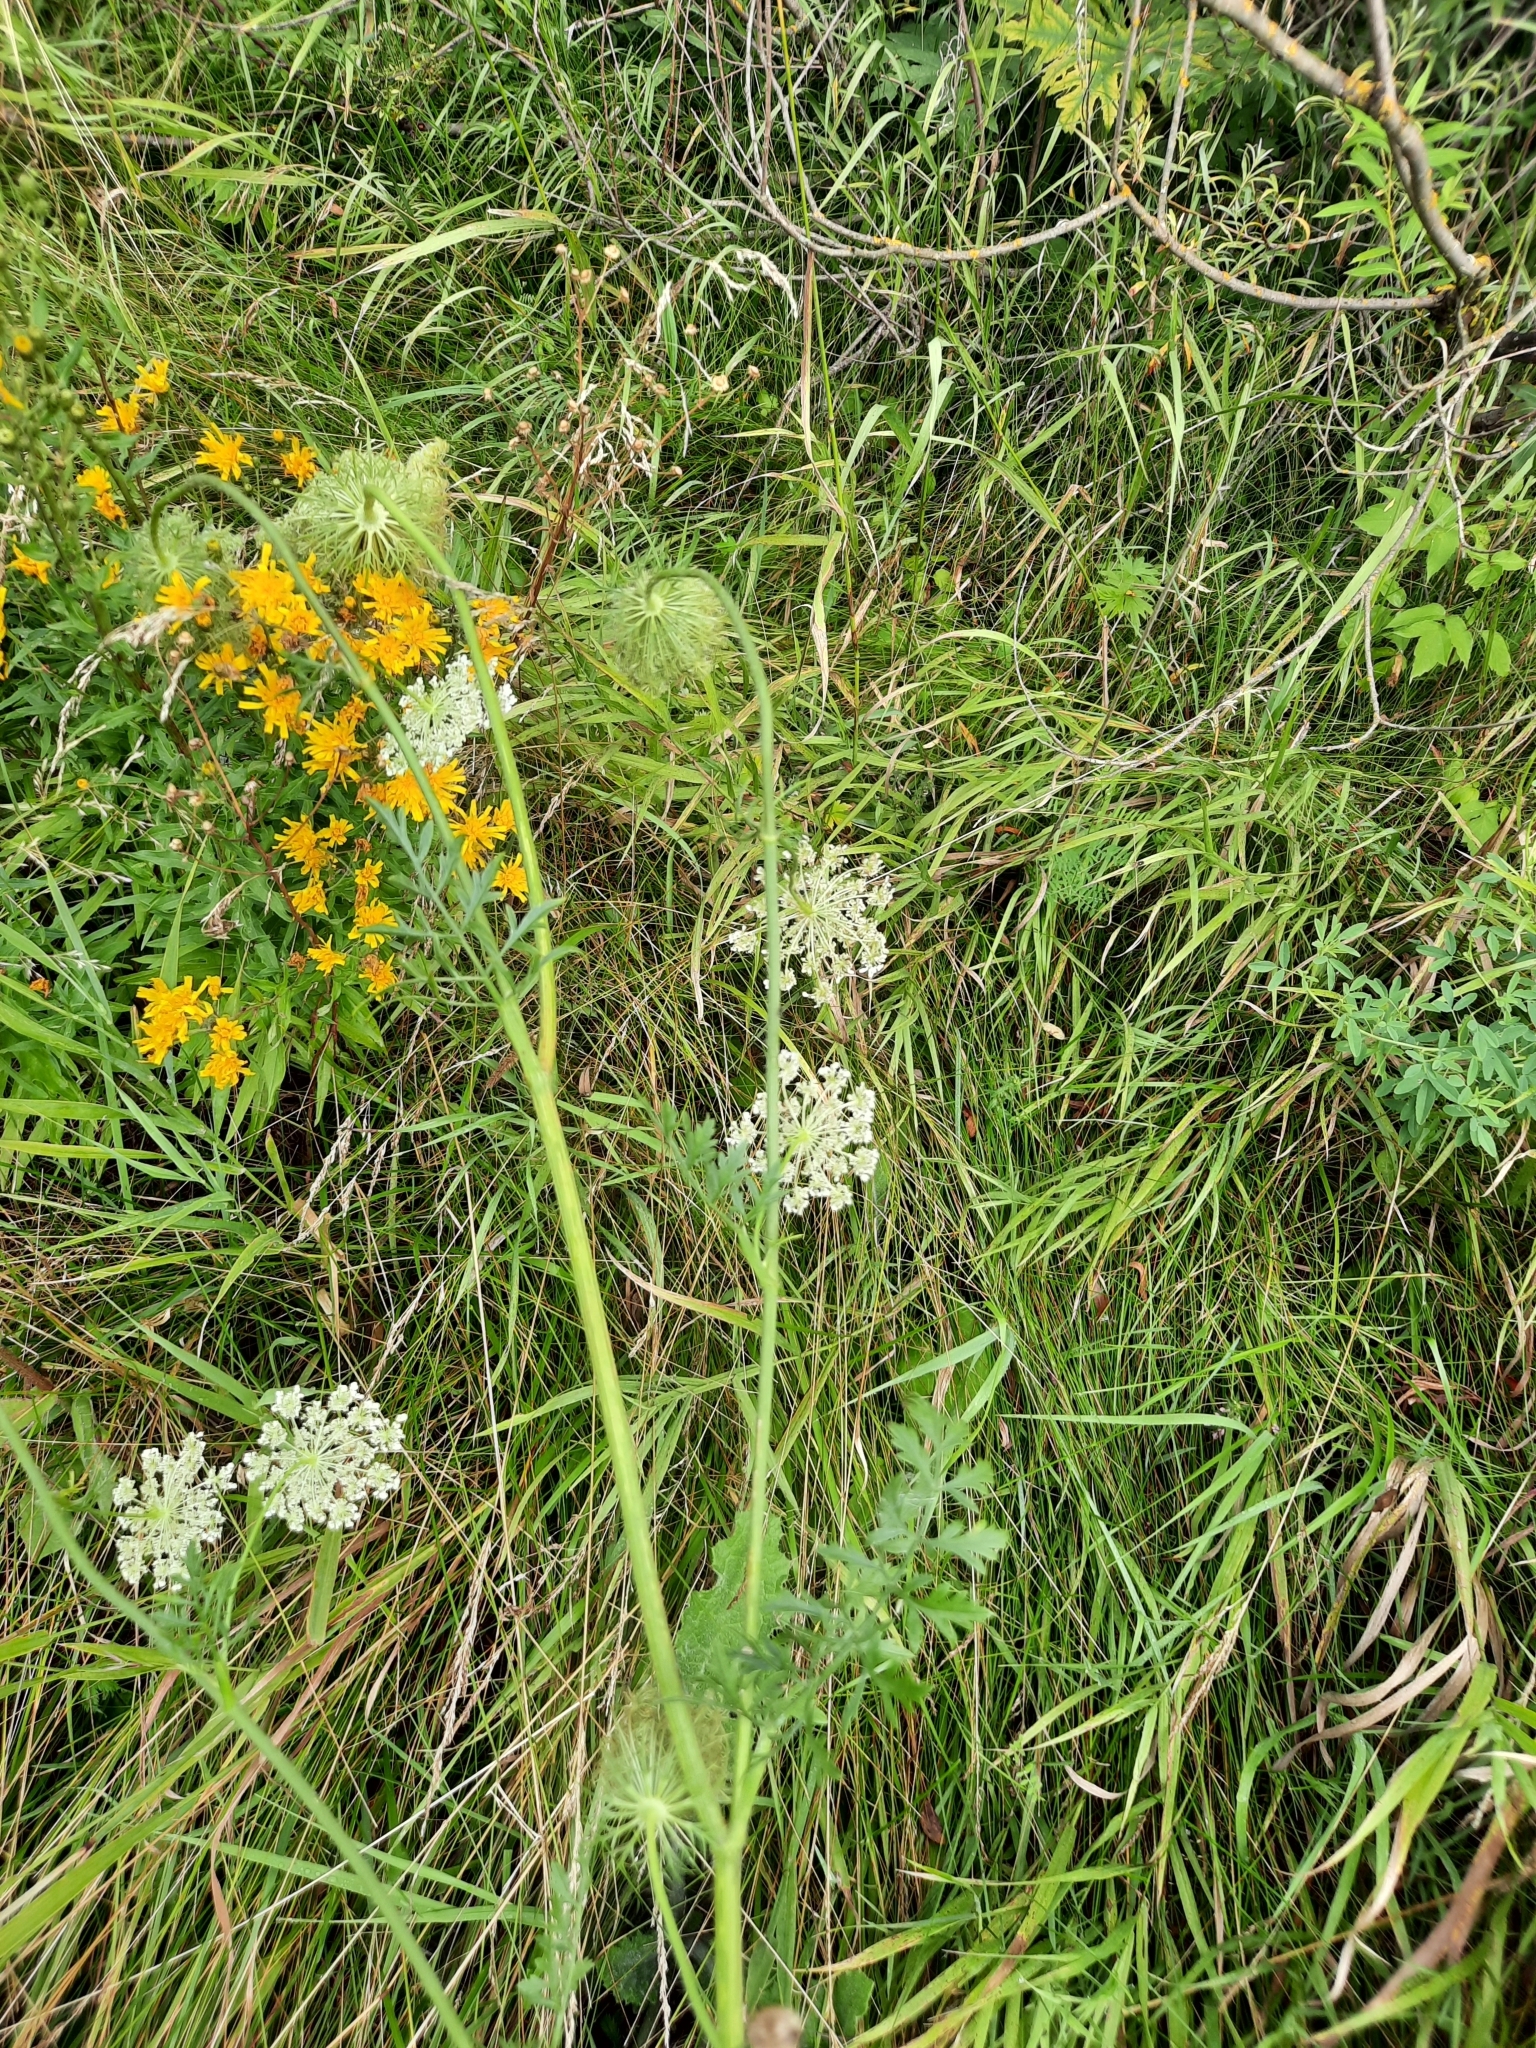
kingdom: Plantae
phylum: Tracheophyta
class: Magnoliopsida
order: Apiales
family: Apiaceae
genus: Daucus
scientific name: Daucus carota
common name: Wild carrot
